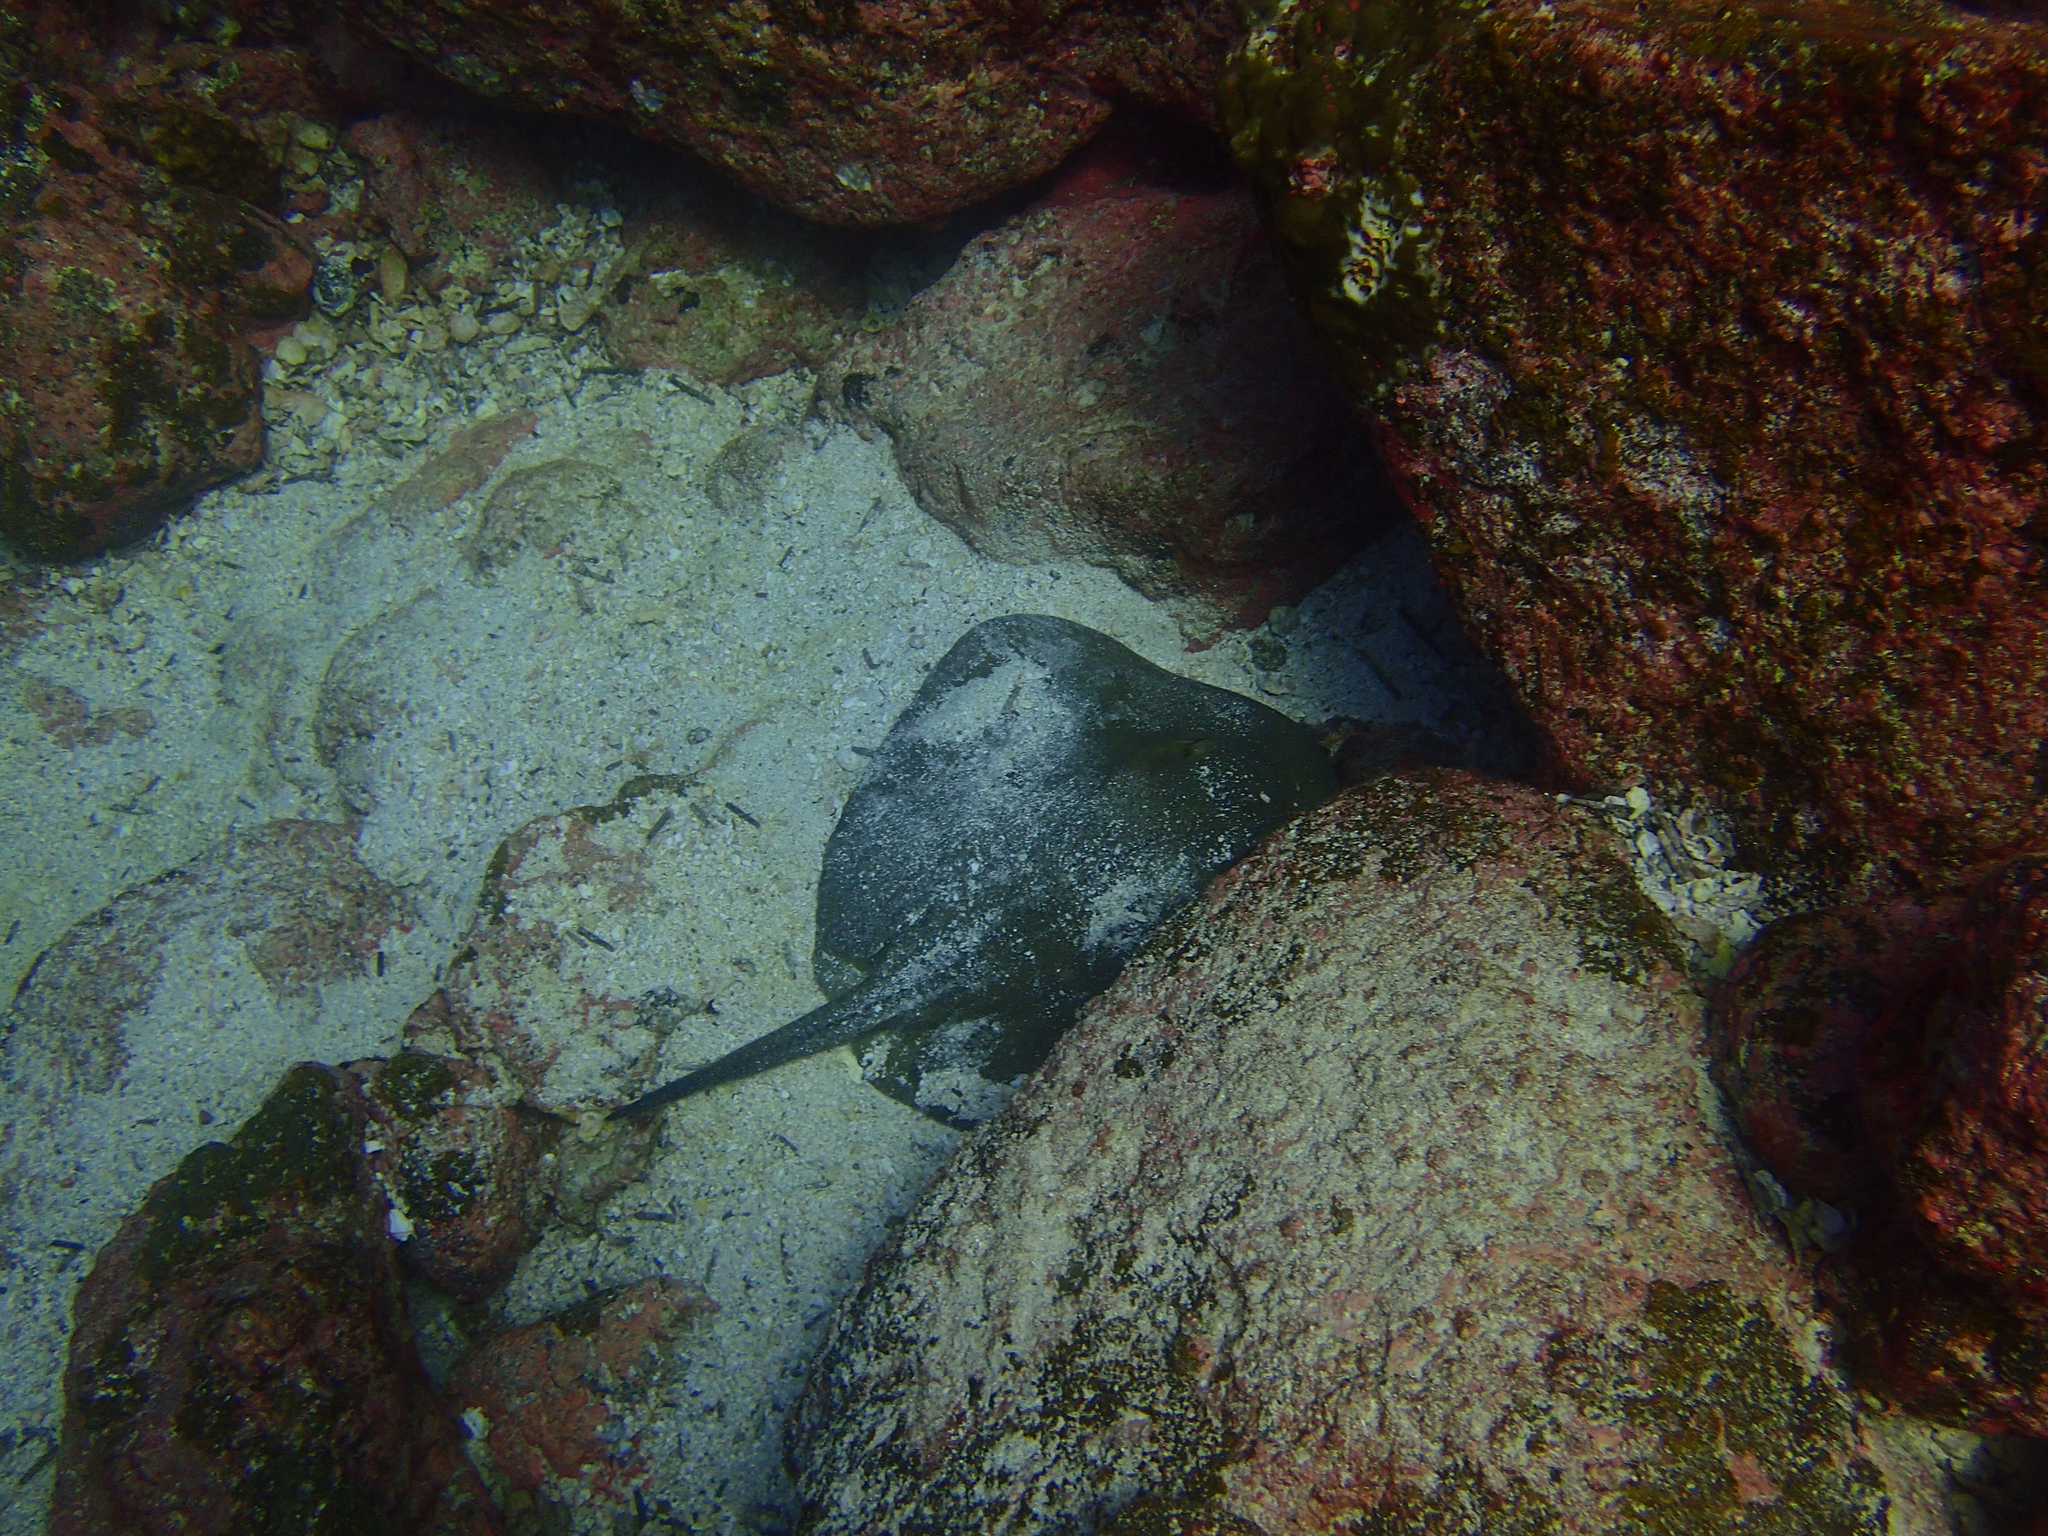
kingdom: Animalia
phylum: Chordata
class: Elasmobranchii
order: Myliobatiformes
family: Dasyatidae
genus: Hypanus
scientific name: Hypanus dipterurus
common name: Diamond stingray
